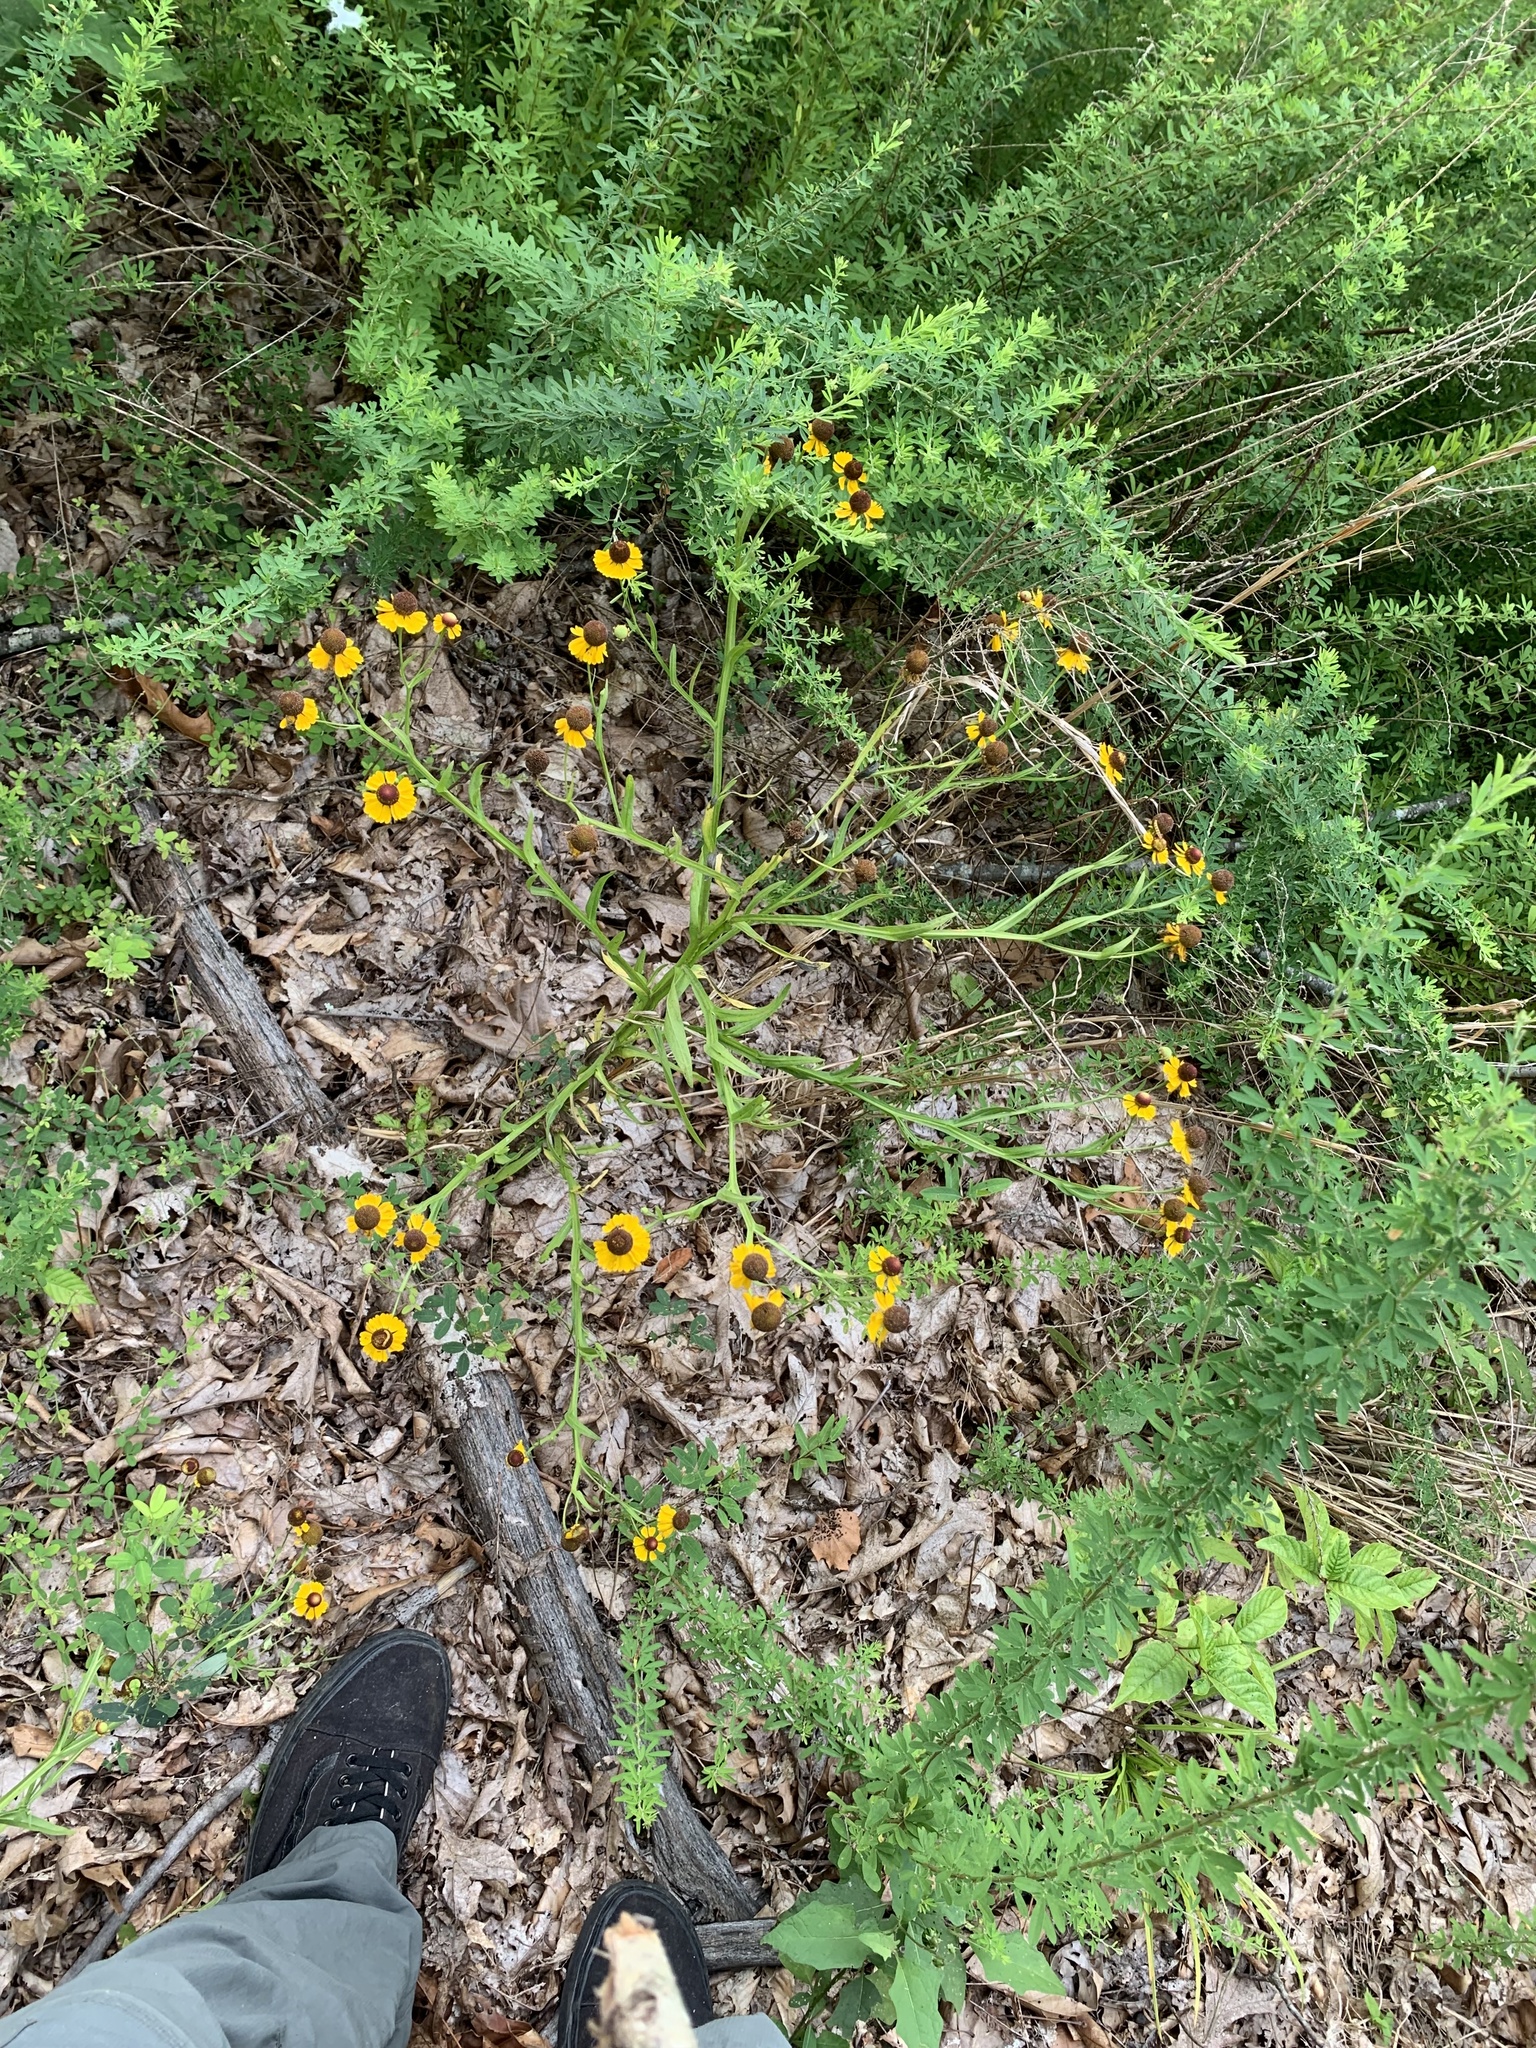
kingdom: Plantae
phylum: Tracheophyta
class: Magnoliopsida
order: Asterales
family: Asteraceae
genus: Helenium
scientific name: Helenium flexuosum
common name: Naked-flowered sneezeweed
